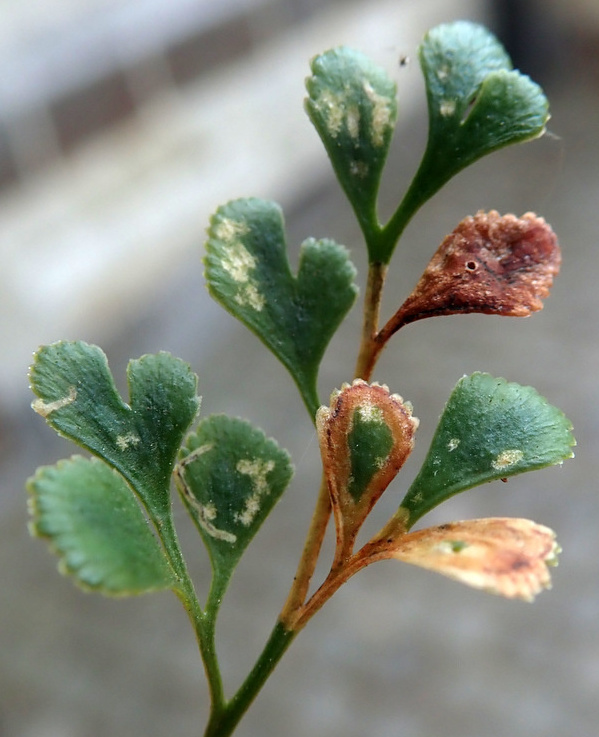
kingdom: Animalia
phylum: Arthropoda
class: Insecta
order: Diptera
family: Agromyzidae
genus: Phytomyza
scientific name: Phytomyza scolopendri
